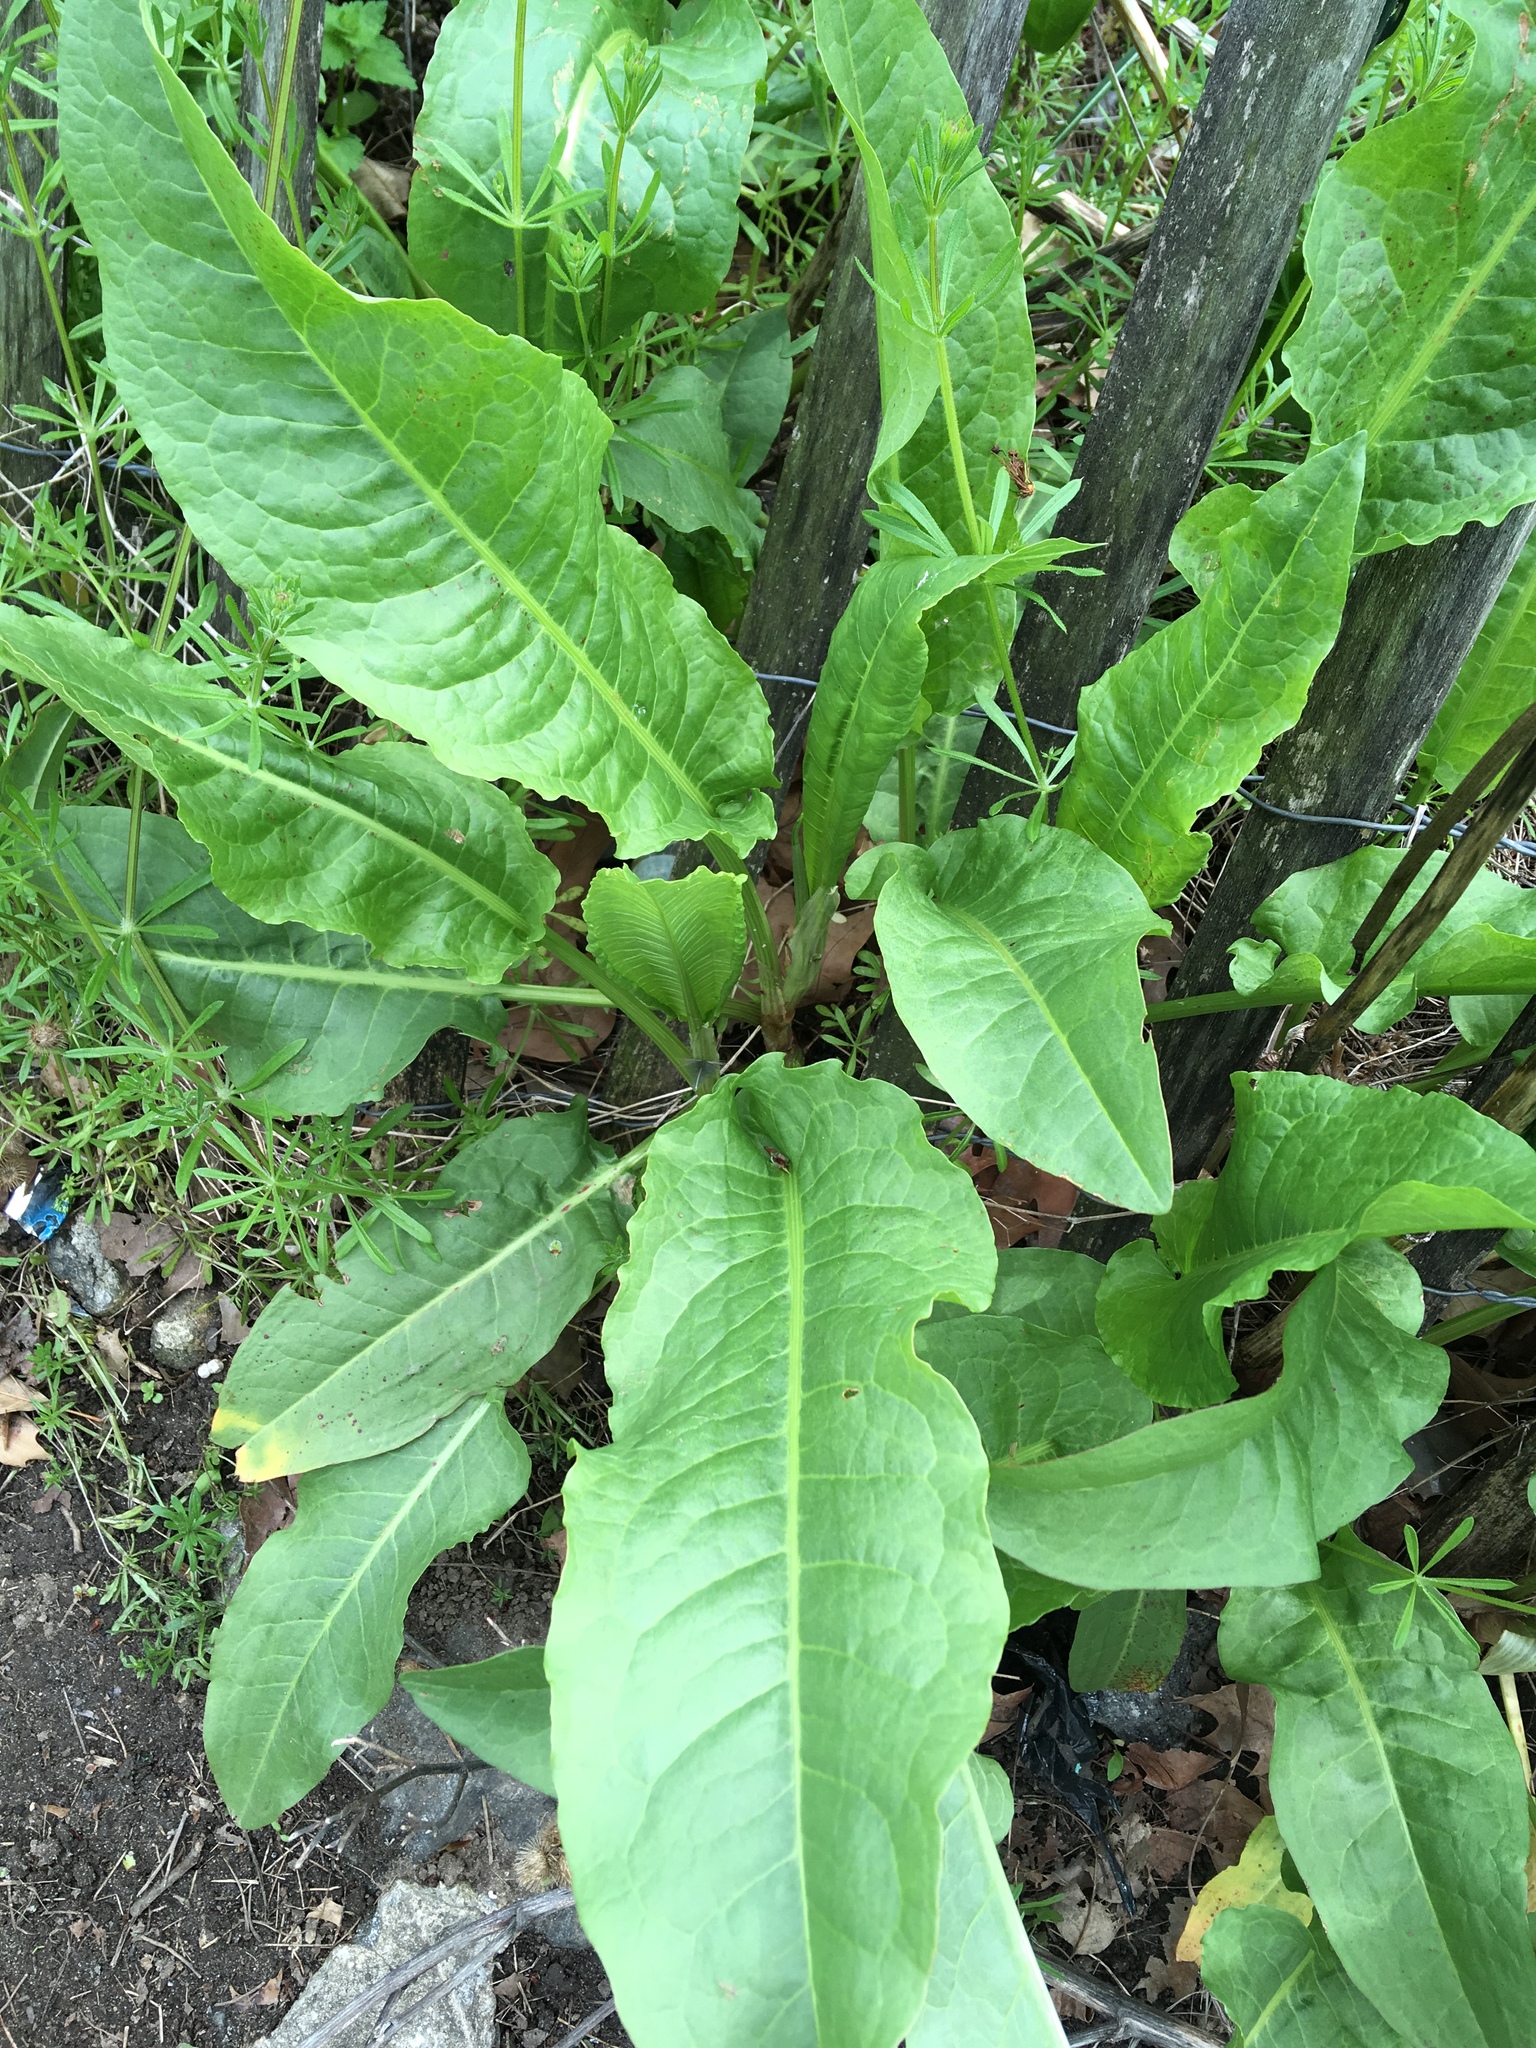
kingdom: Plantae
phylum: Tracheophyta
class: Magnoliopsida
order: Caryophyllales
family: Polygonaceae
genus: Rumex
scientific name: Rumex crispus
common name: Curled dock
